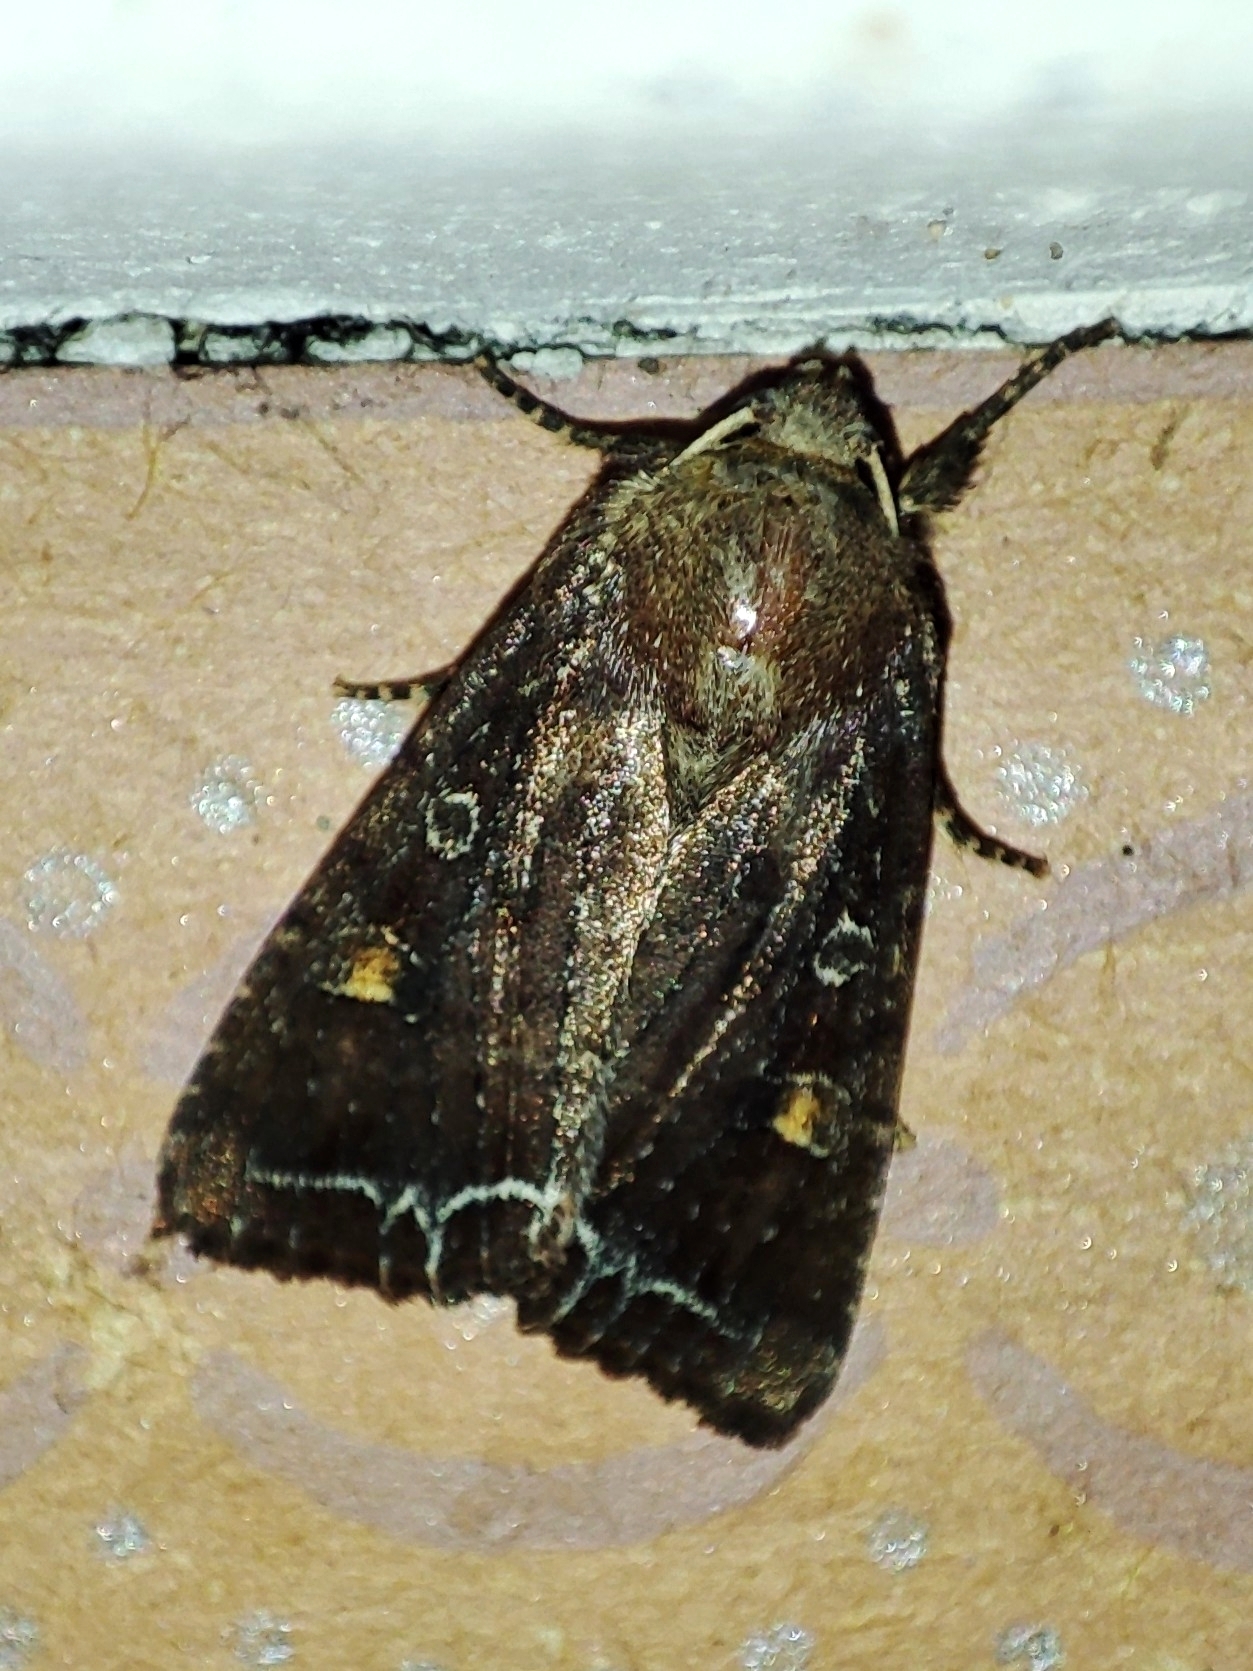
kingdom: Animalia
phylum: Arthropoda
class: Insecta
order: Lepidoptera
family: Noctuidae
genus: Lacanobia
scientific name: Lacanobia oleracea
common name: Bright-line brown-eye
